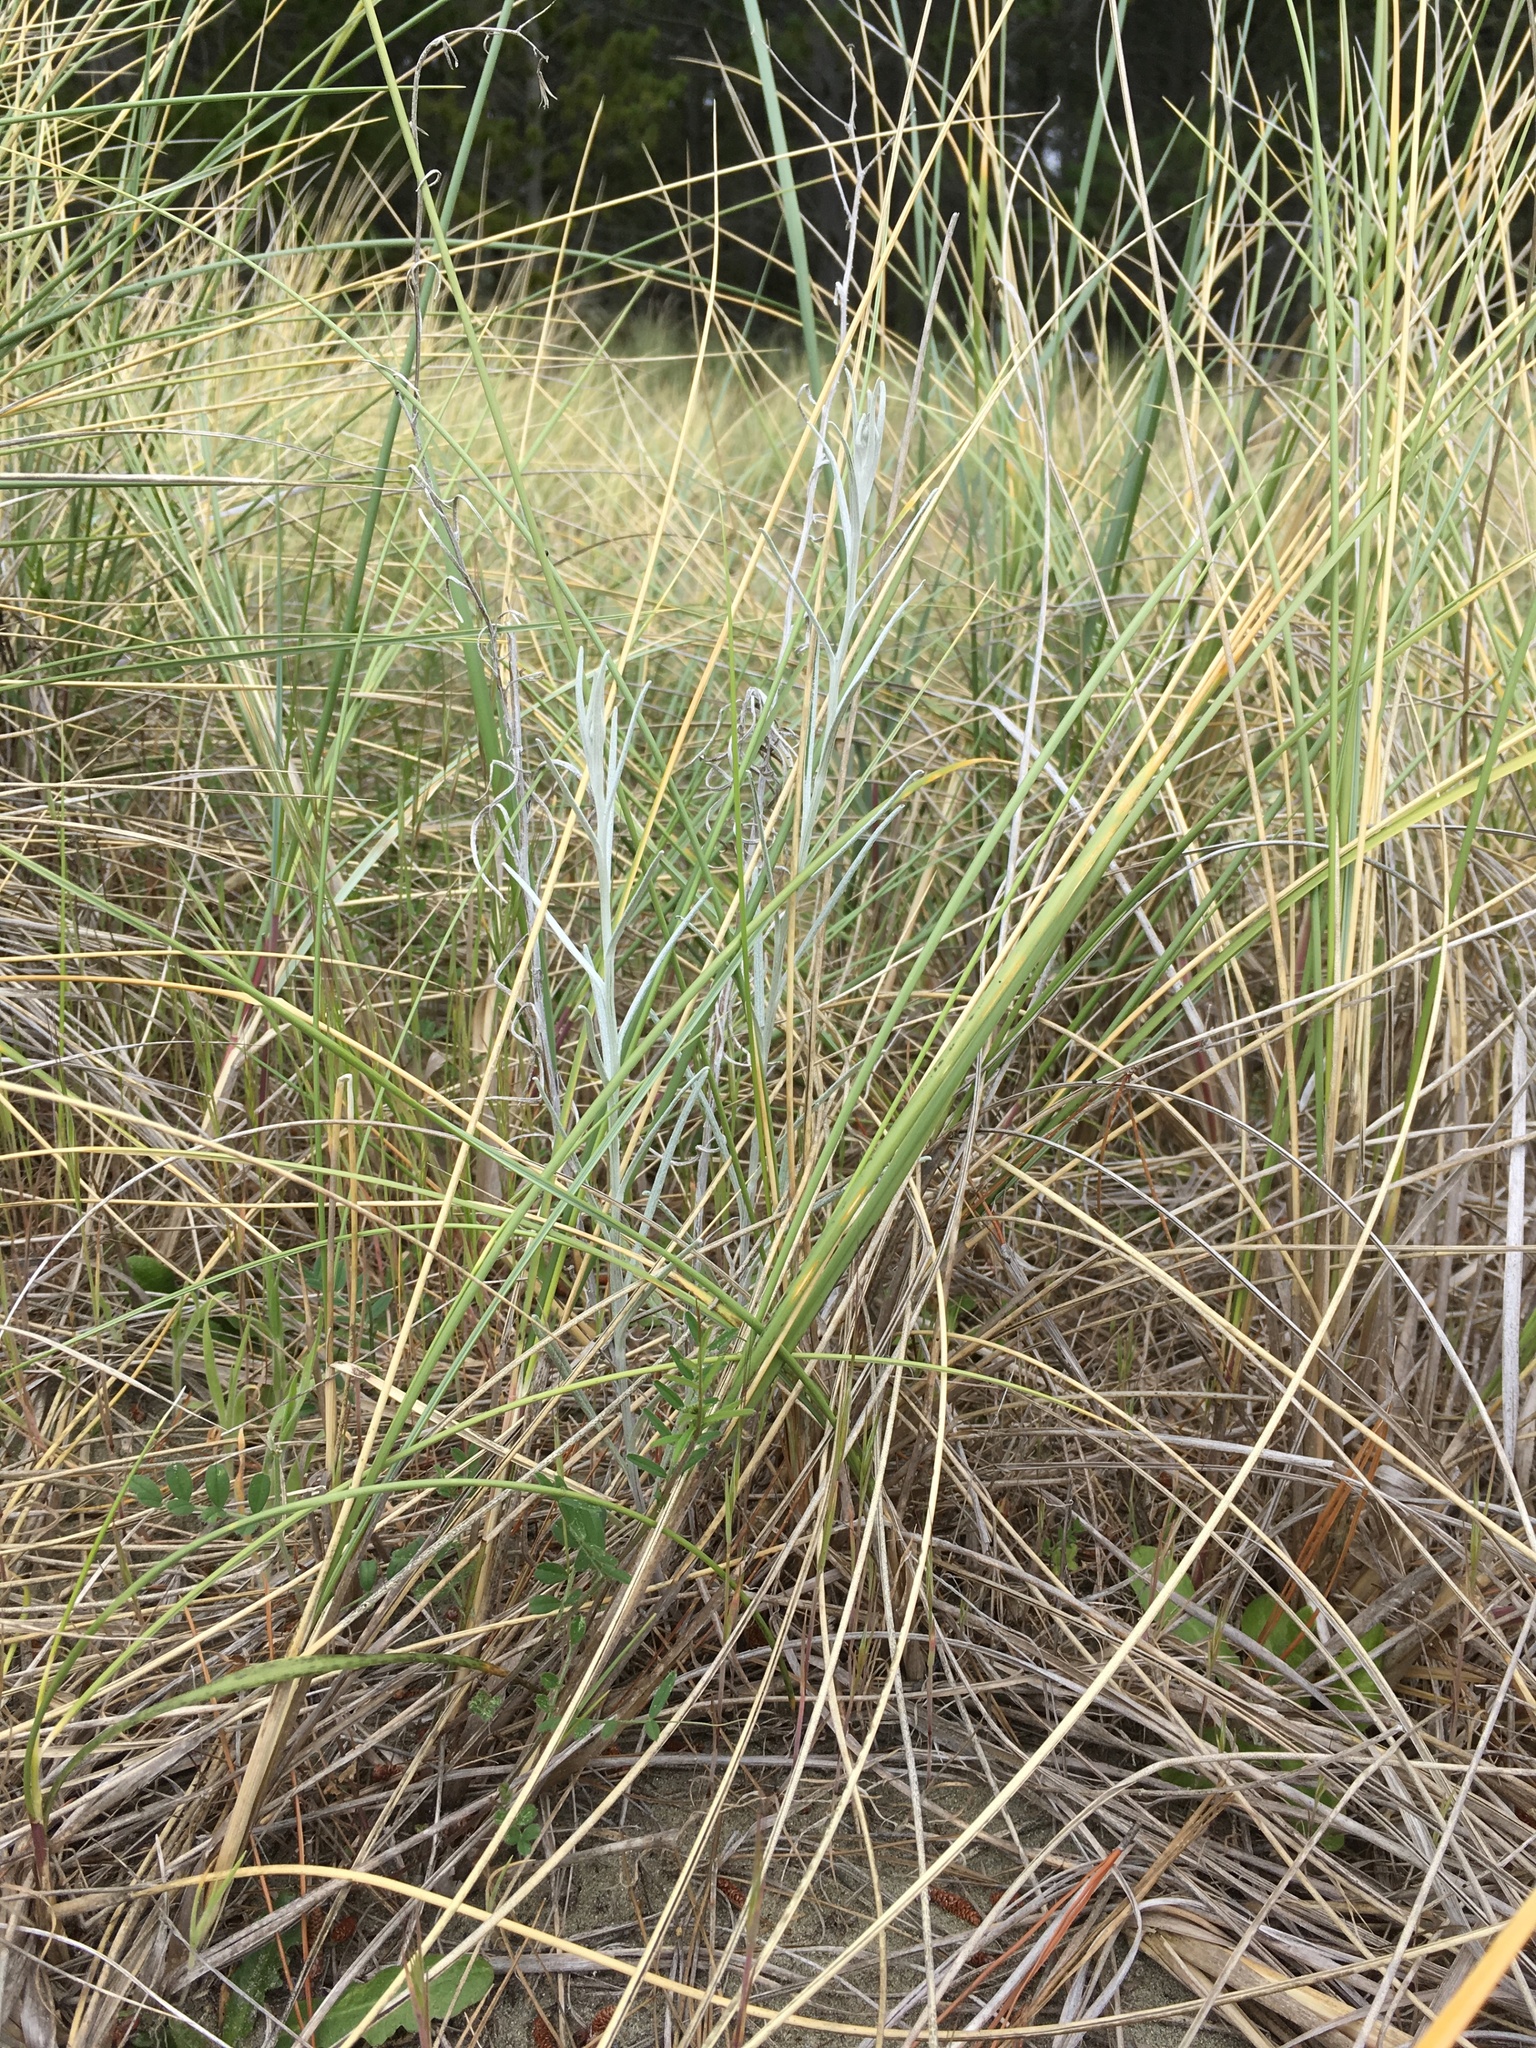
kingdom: Plantae
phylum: Tracheophyta
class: Magnoliopsida
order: Asterales
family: Asteraceae
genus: Senecio
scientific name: Senecio quadridentatus
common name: Cotton fireweed
